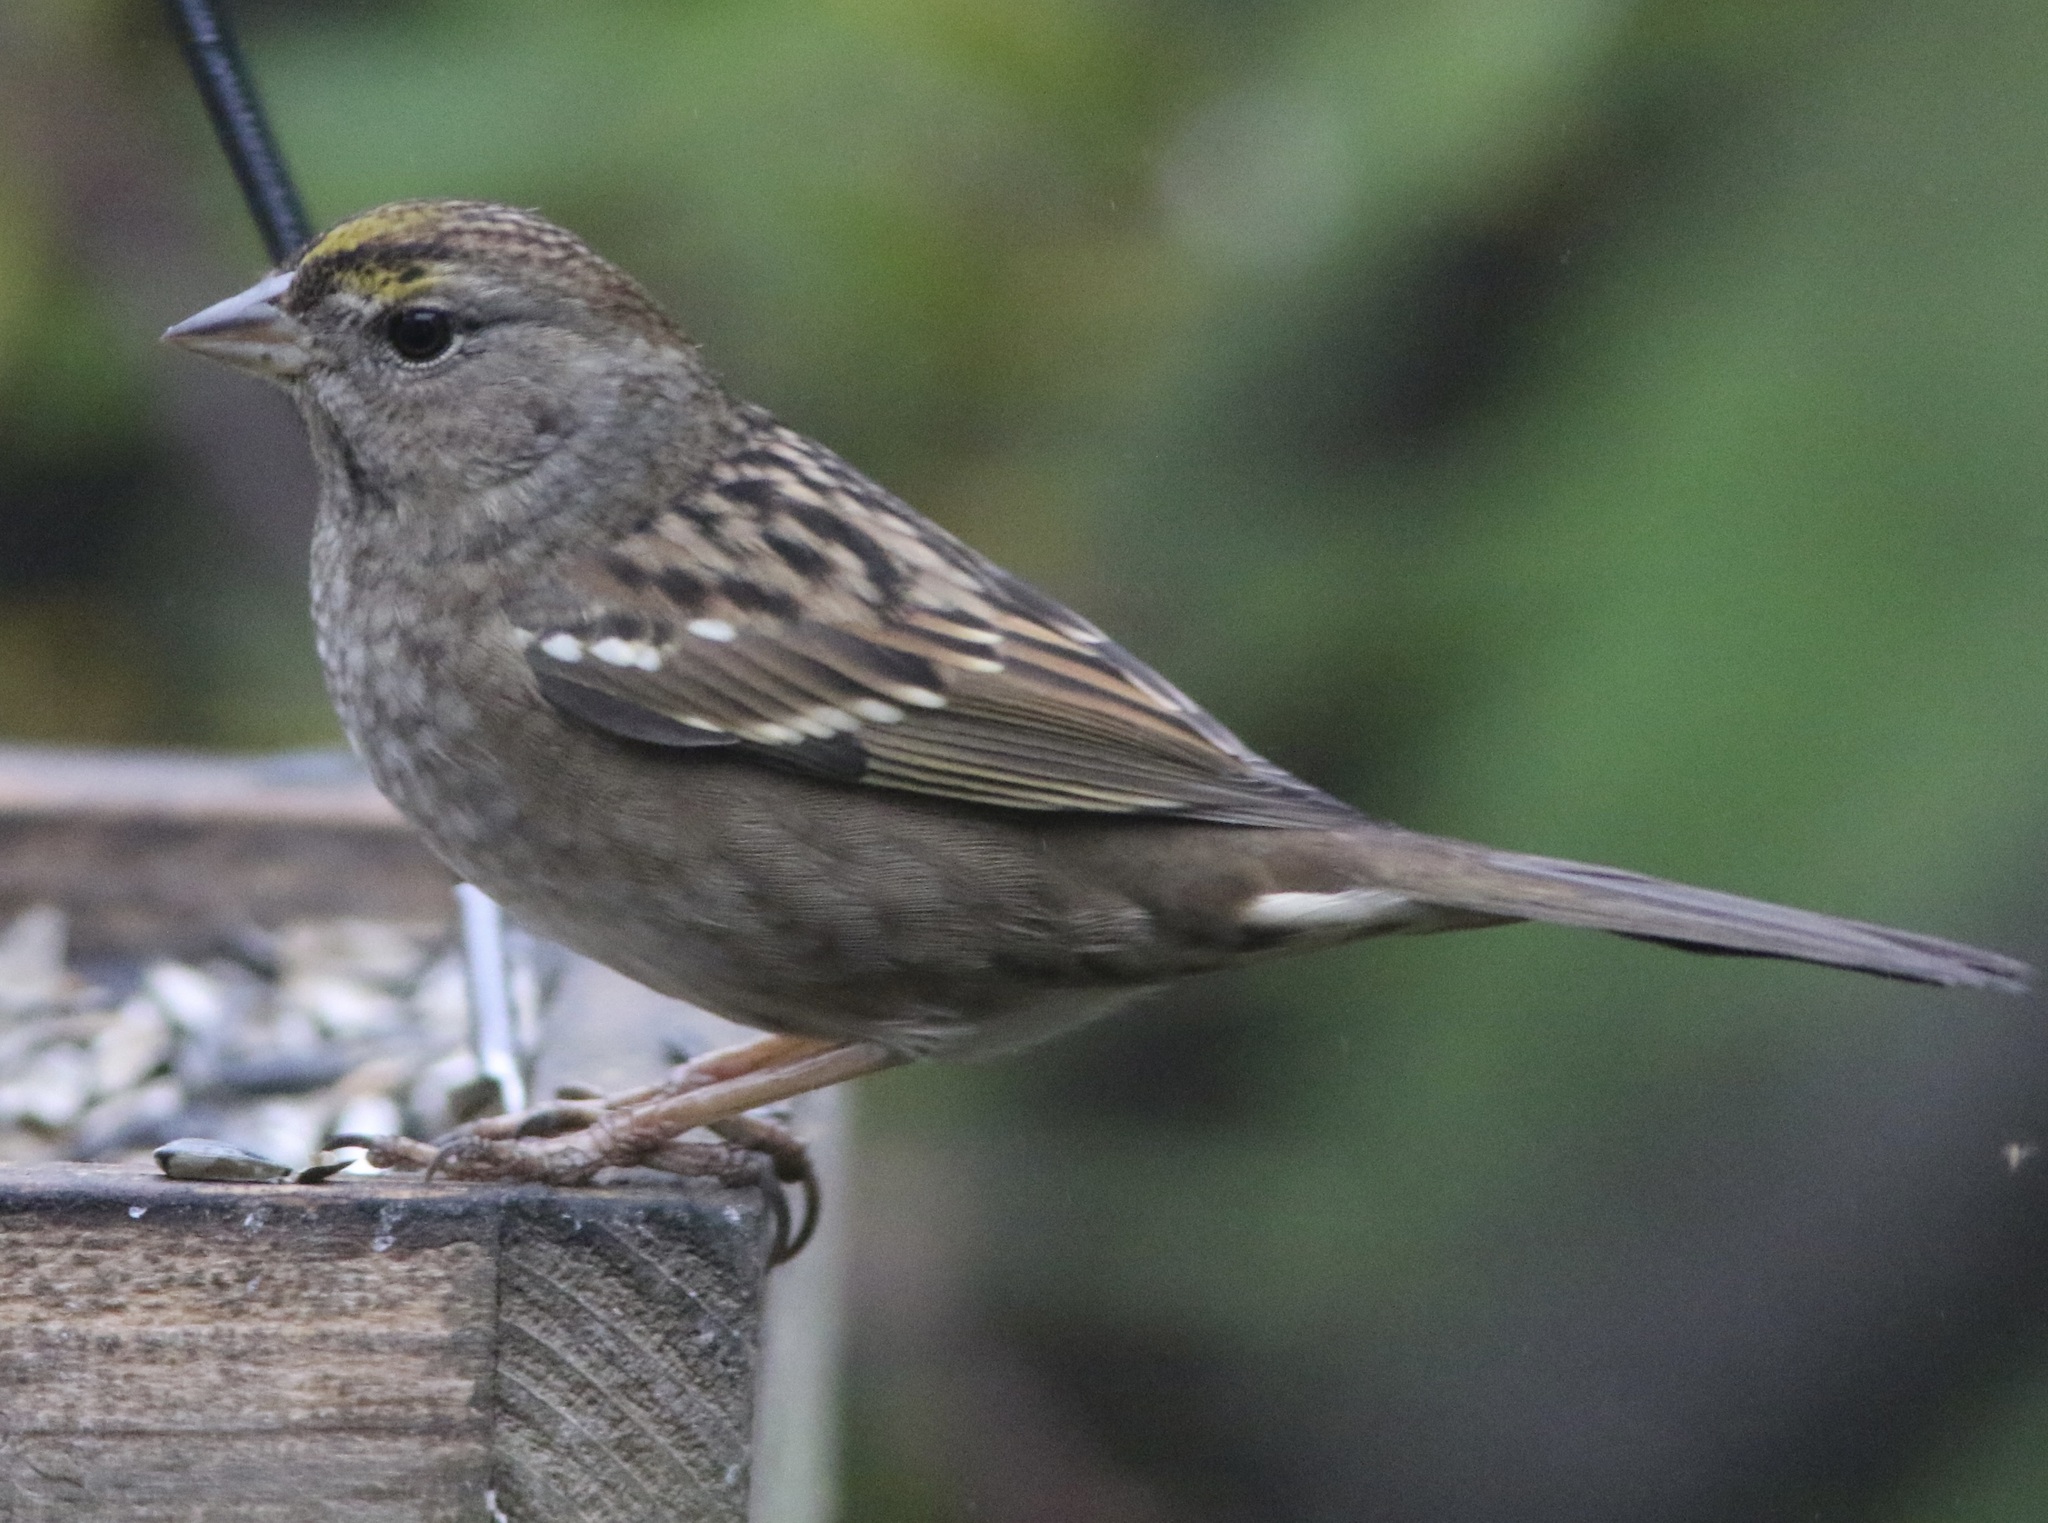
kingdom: Animalia
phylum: Chordata
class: Aves
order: Passeriformes
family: Passerellidae
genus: Zonotrichia
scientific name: Zonotrichia atricapilla
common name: Golden-crowned sparrow
